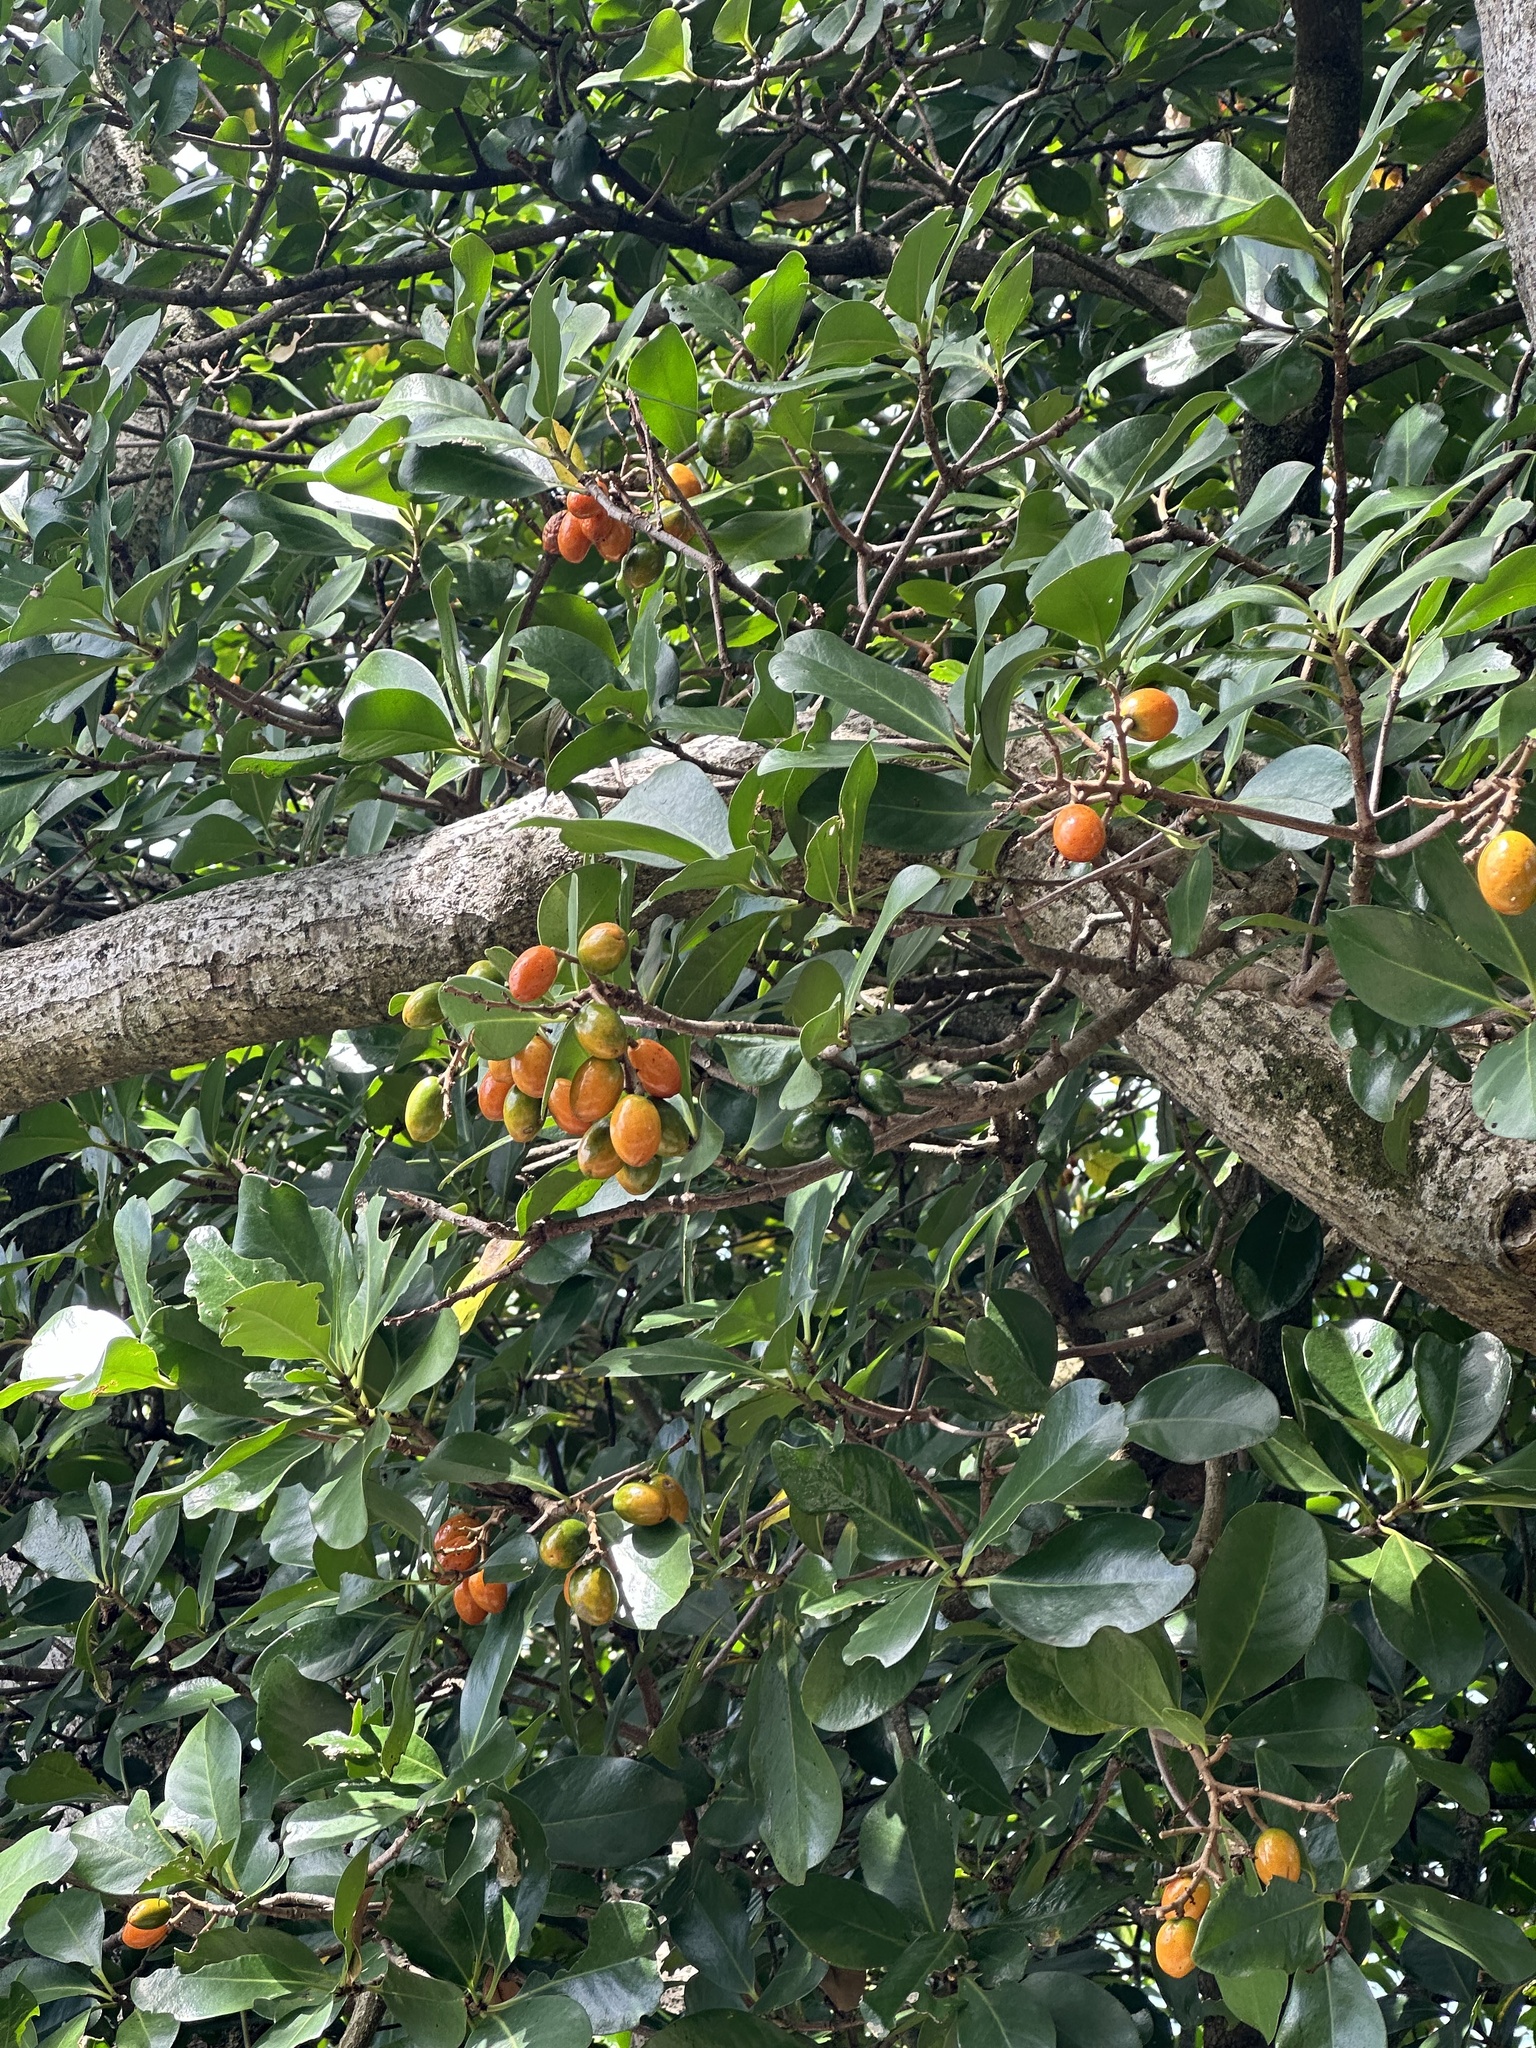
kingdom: Plantae
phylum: Tracheophyta
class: Magnoliopsida
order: Cucurbitales
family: Corynocarpaceae
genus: Corynocarpus
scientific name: Corynocarpus laevigatus
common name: New zealand laurel
